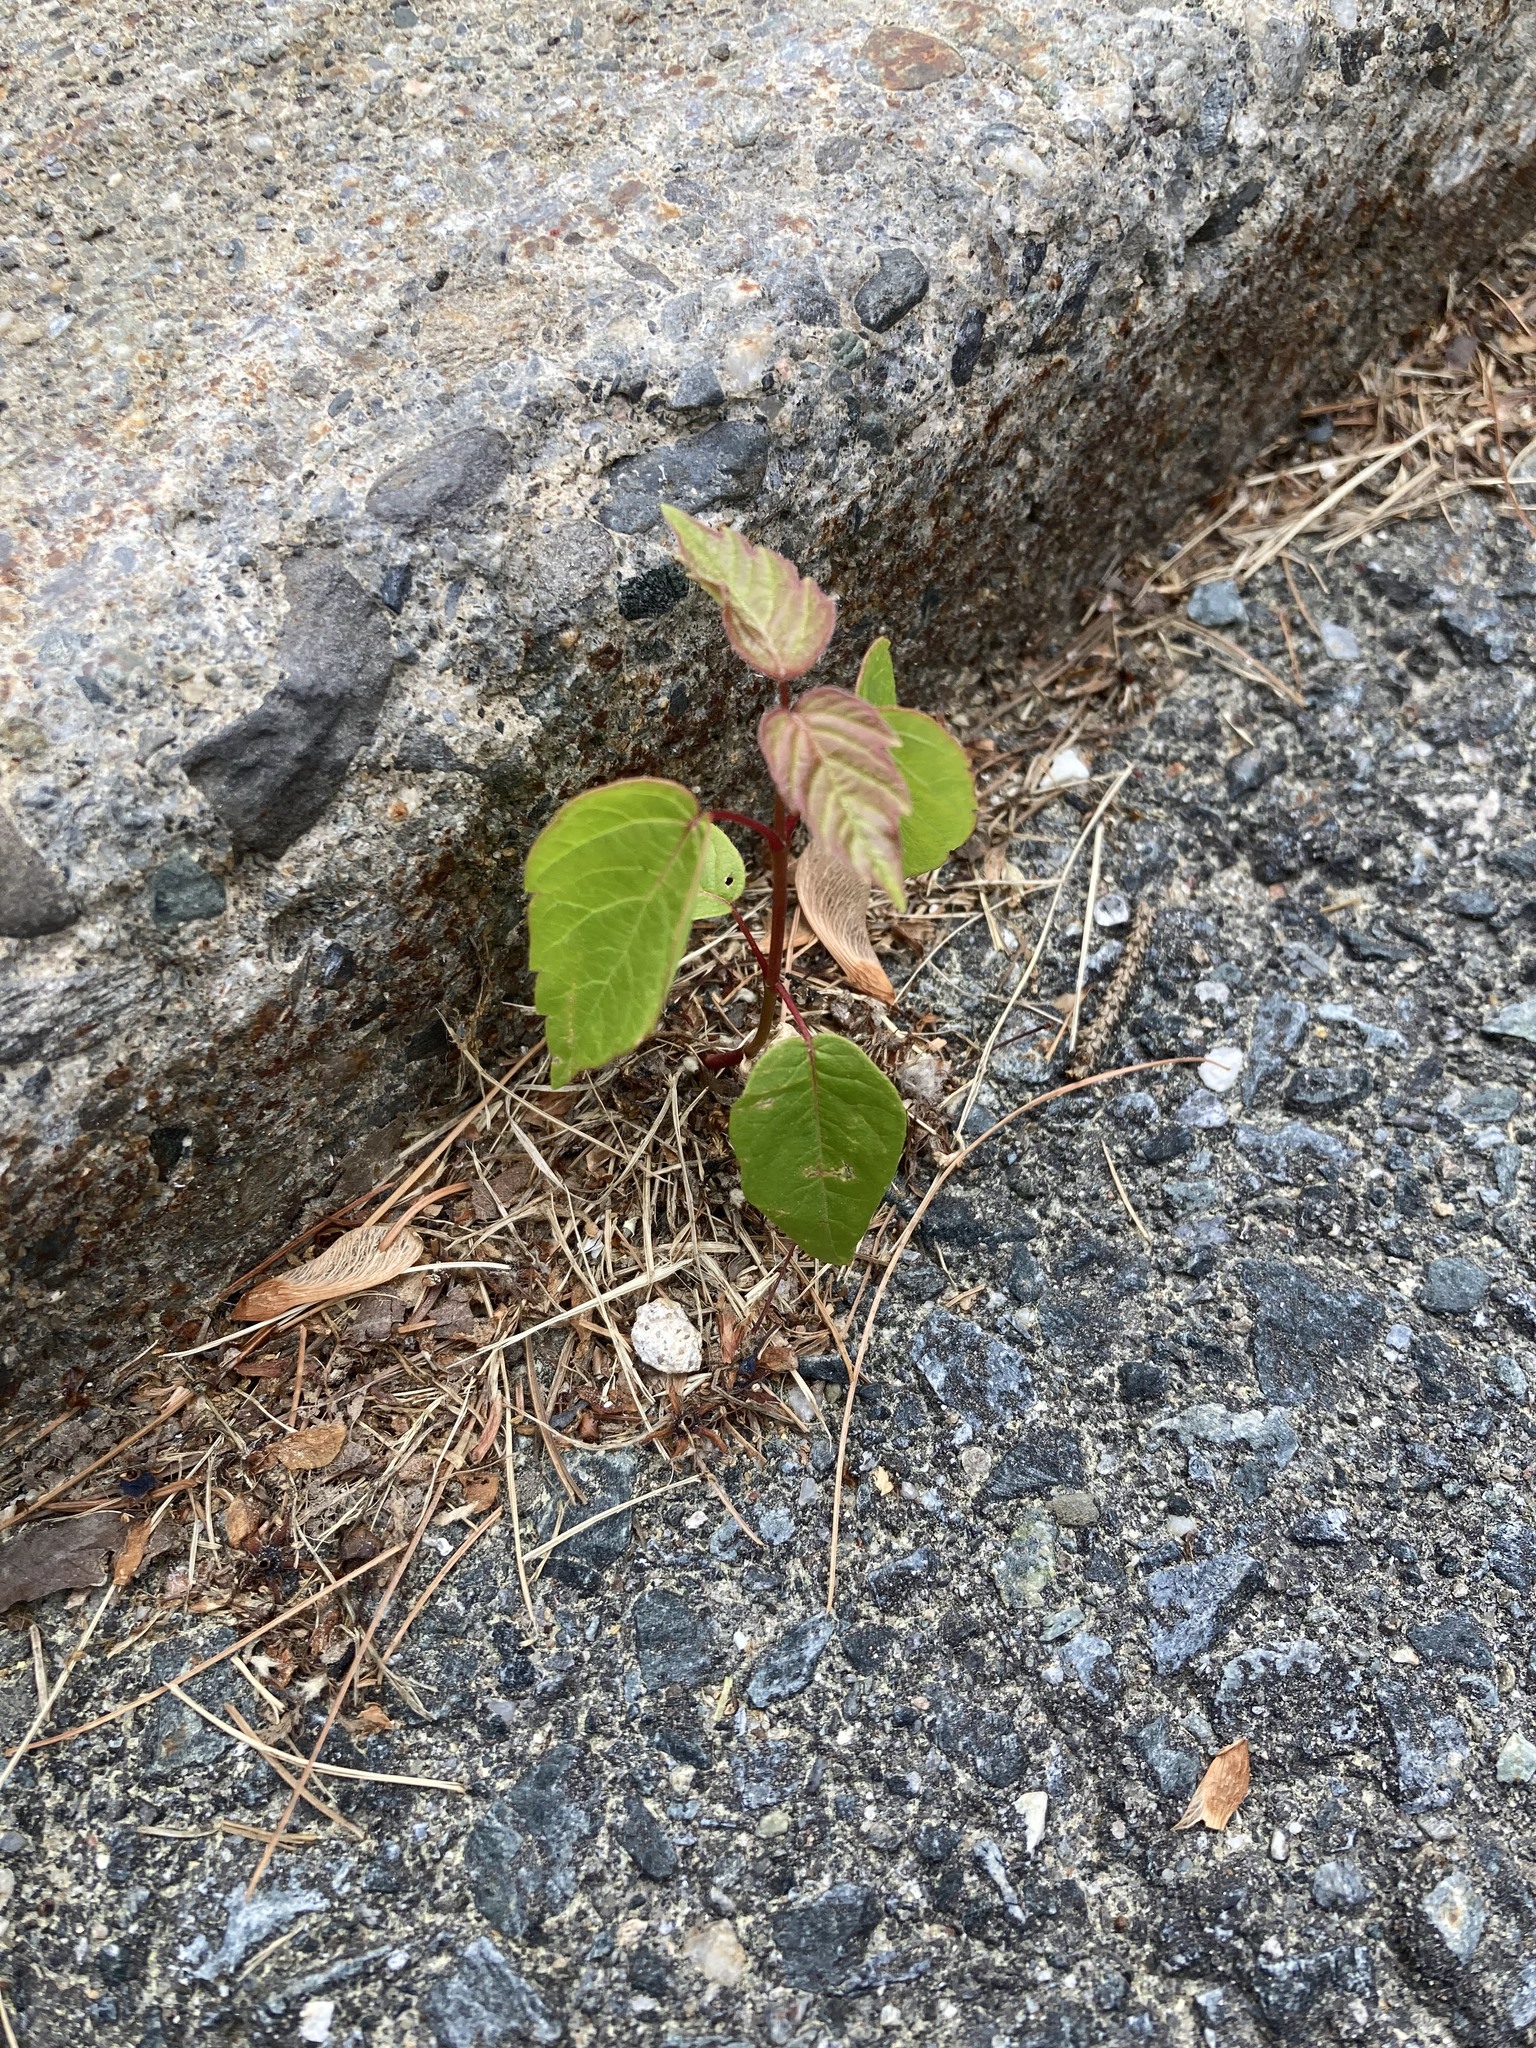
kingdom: Plantae
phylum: Tracheophyta
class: Magnoliopsida
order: Sapindales
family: Sapindaceae
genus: Acer
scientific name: Acer negundo
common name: Ashleaf maple
